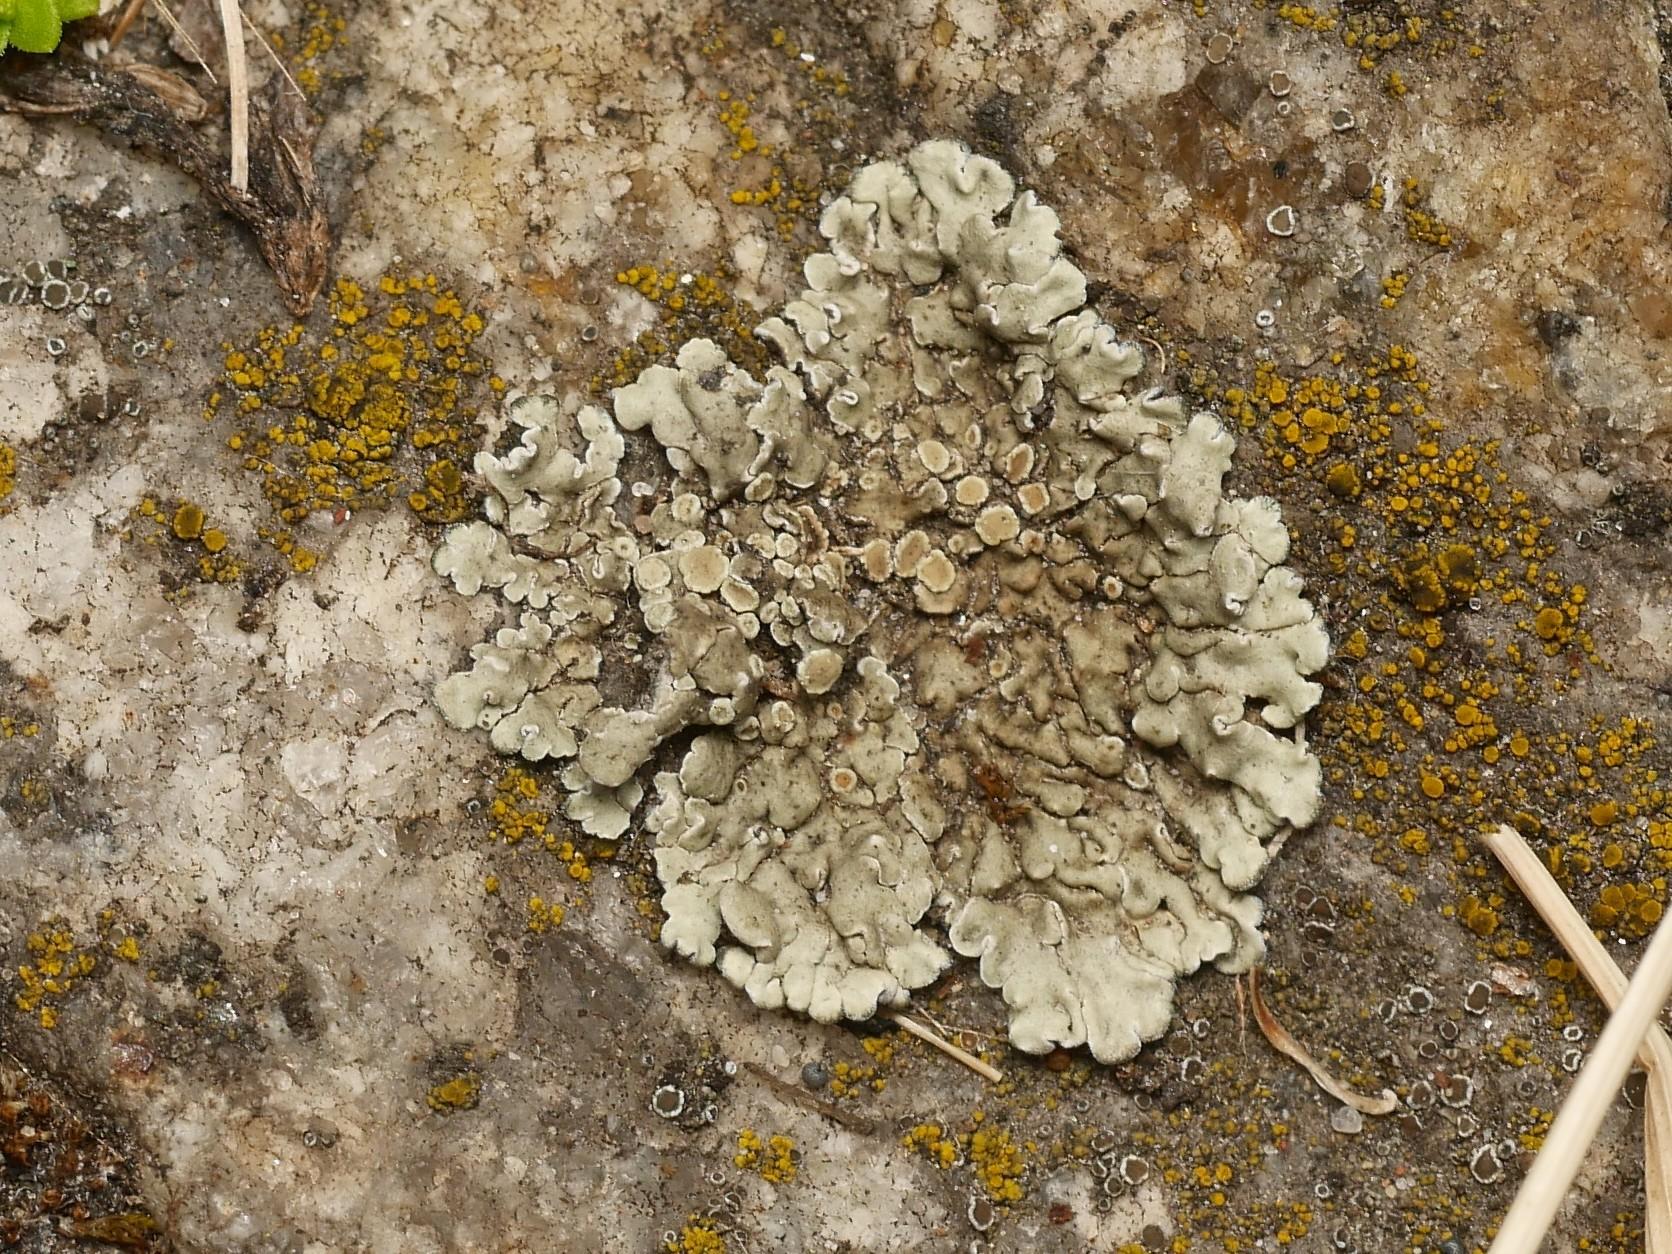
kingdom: Fungi
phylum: Ascomycota
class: Lecanoromycetes
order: Lecanorales
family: Lecanoraceae
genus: Protoparmeliopsis
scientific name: Protoparmeliopsis muralis
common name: Stonewall rim lichen
